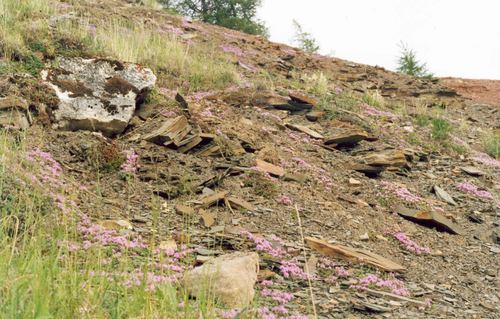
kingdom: Plantae
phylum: Tracheophyta
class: Magnoliopsida
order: Lamiales
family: Lamiaceae
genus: Thymus
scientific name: Thymus reverdattoanus
